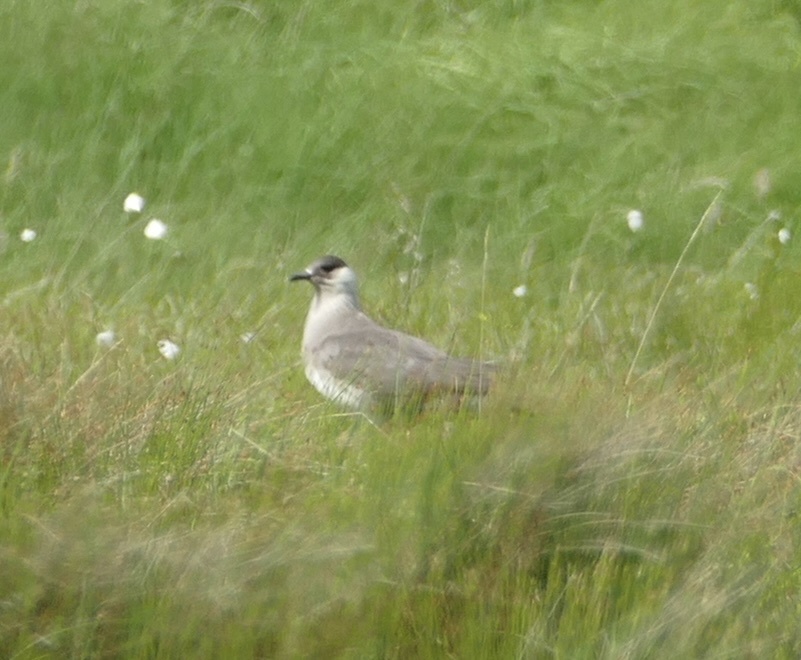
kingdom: Animalia
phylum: Chordata
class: Aves
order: Charadriiformes
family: Stercorariidae
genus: Stercorarius
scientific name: Stercorarius parasiticus
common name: Parasitic jaeger
